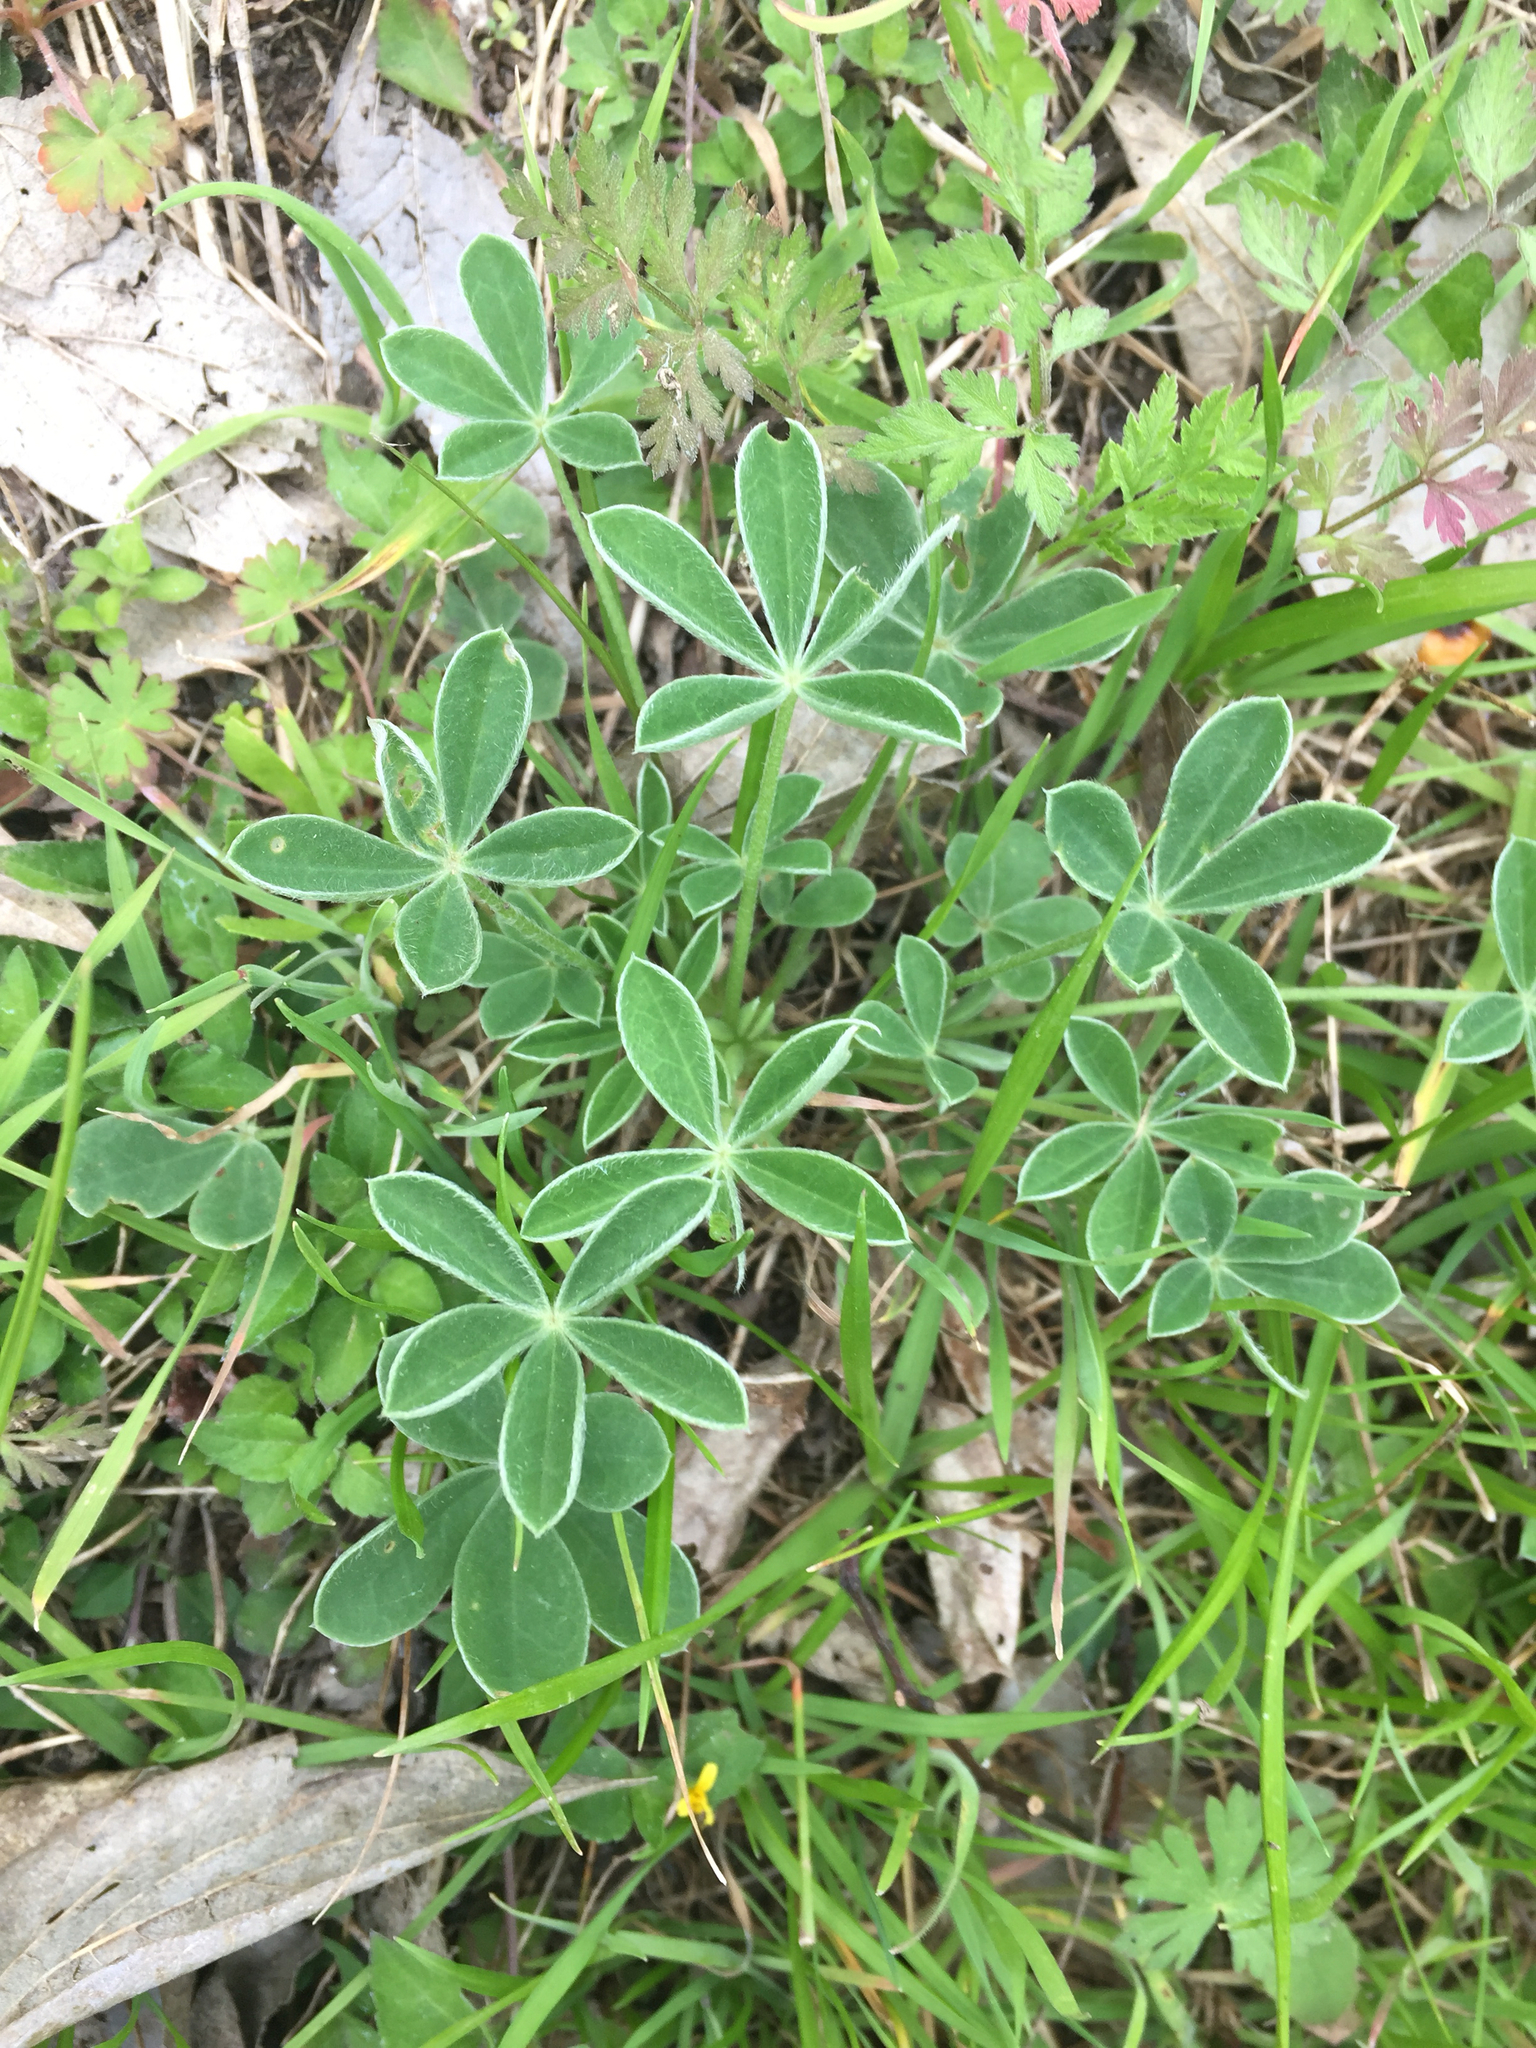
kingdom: Plantae
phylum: Tracheophyta
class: Magnoliopsida
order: Fabales
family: Fabaceae
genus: Lupinus
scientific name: Lupinus texensis
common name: Texas bluebonnet
